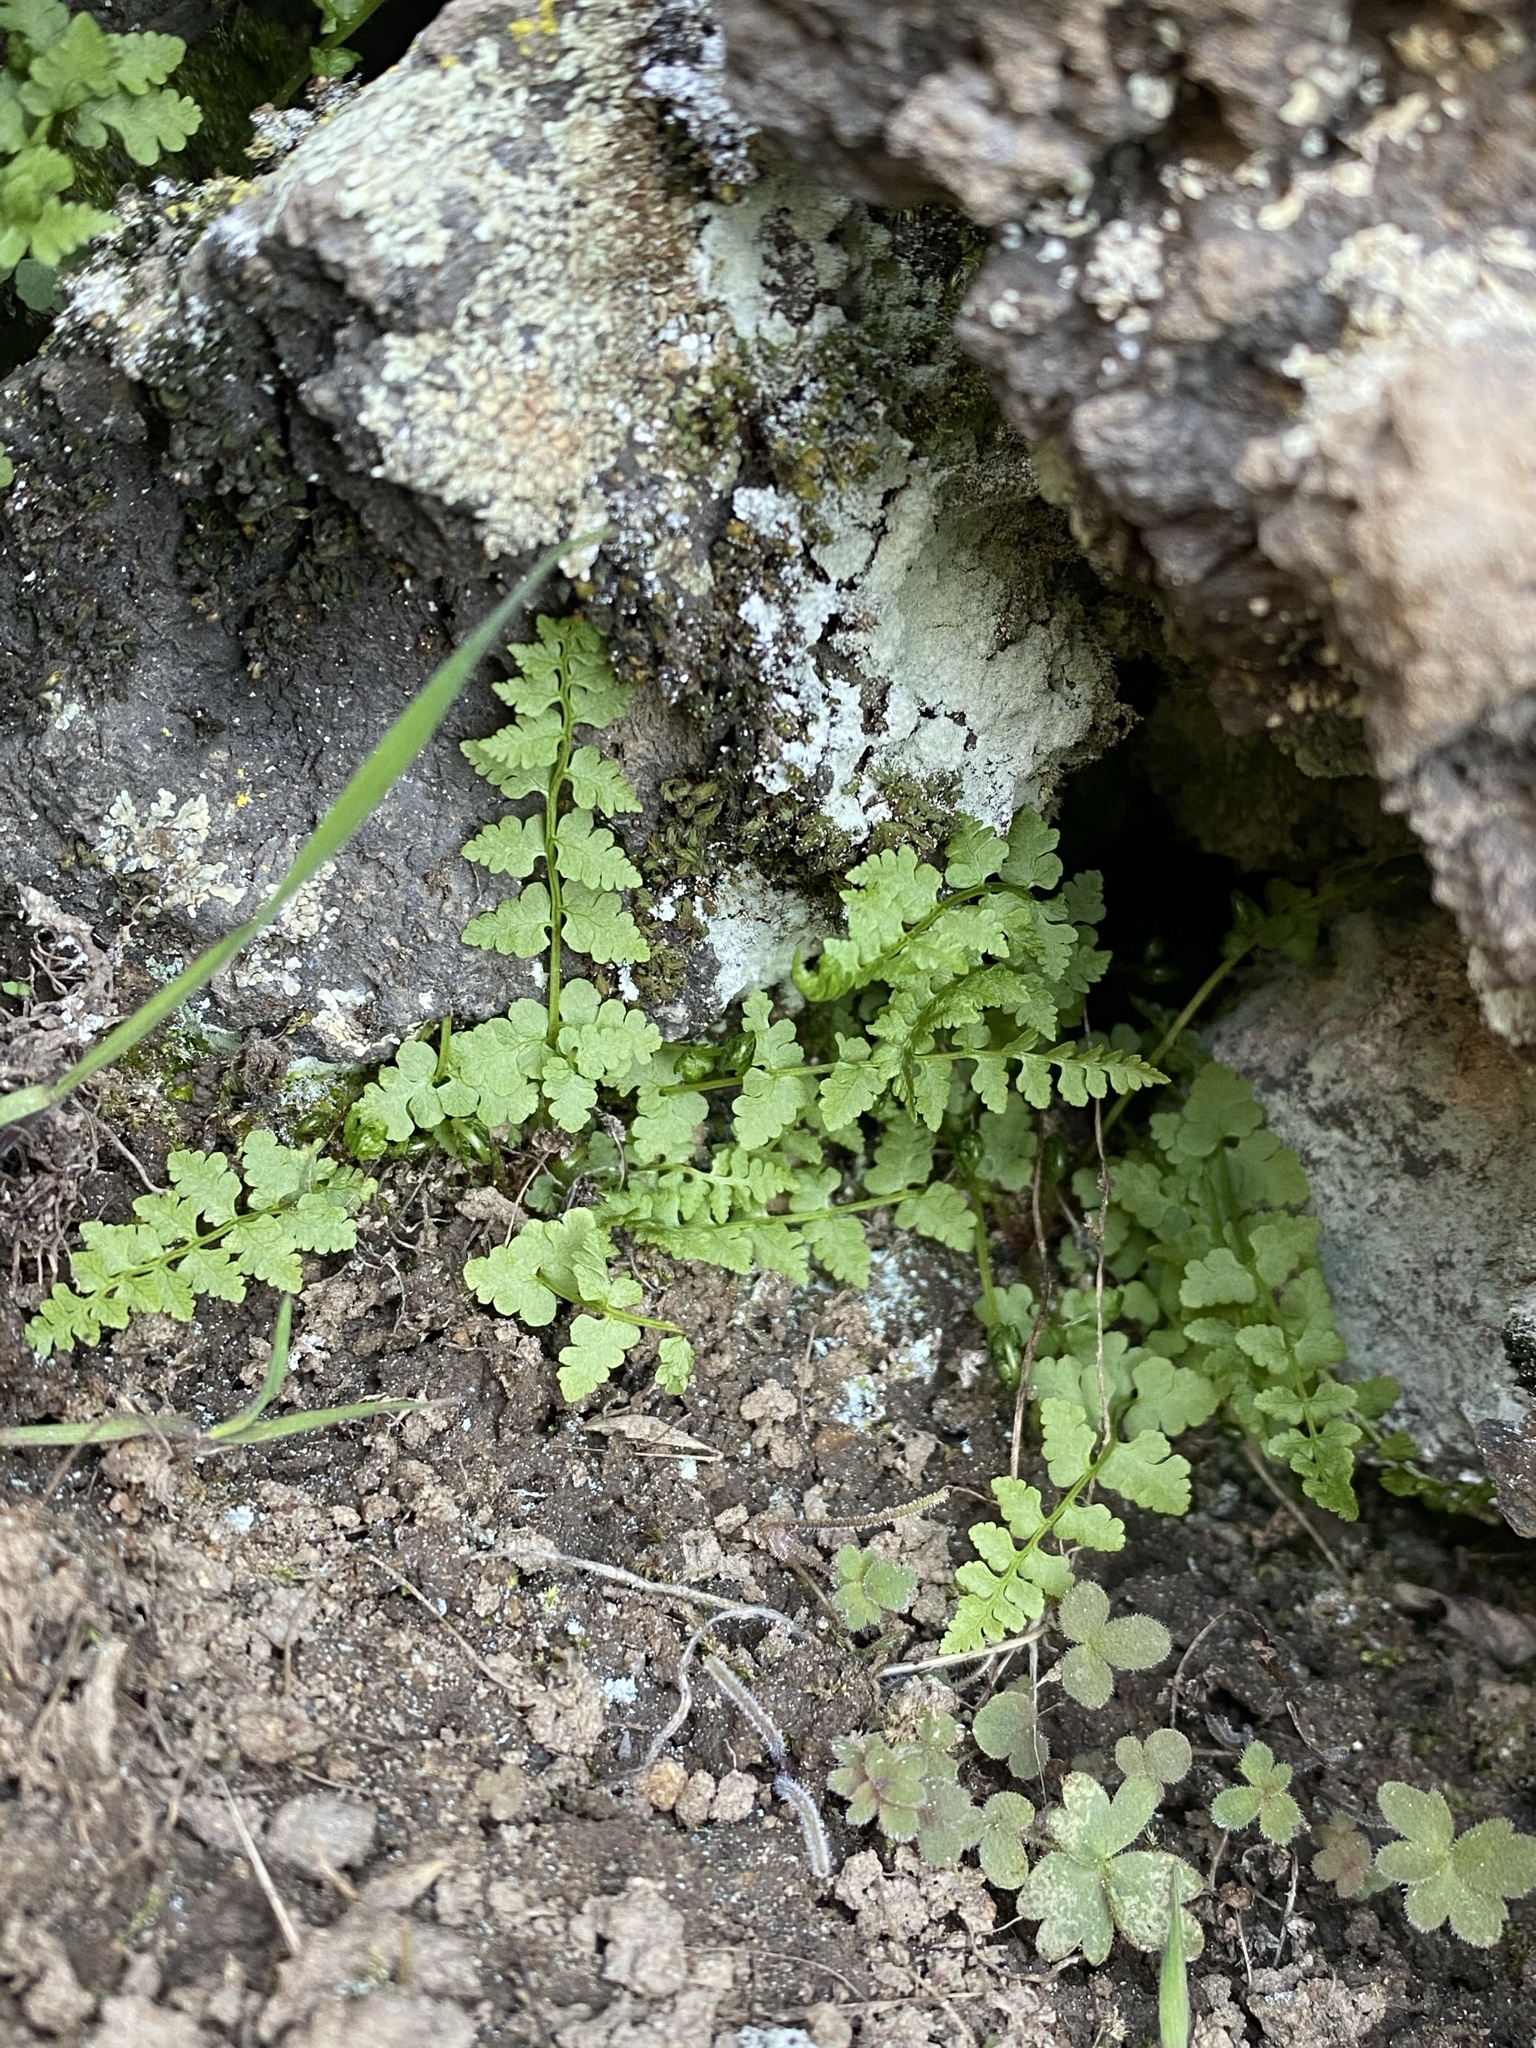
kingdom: Plantae
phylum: Tracheophyta
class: Polypodiopsida
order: Polypodiales
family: Cystopteridaceae
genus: Cystopteris
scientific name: Cystopteris fragilis
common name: Brittle bladder fern
